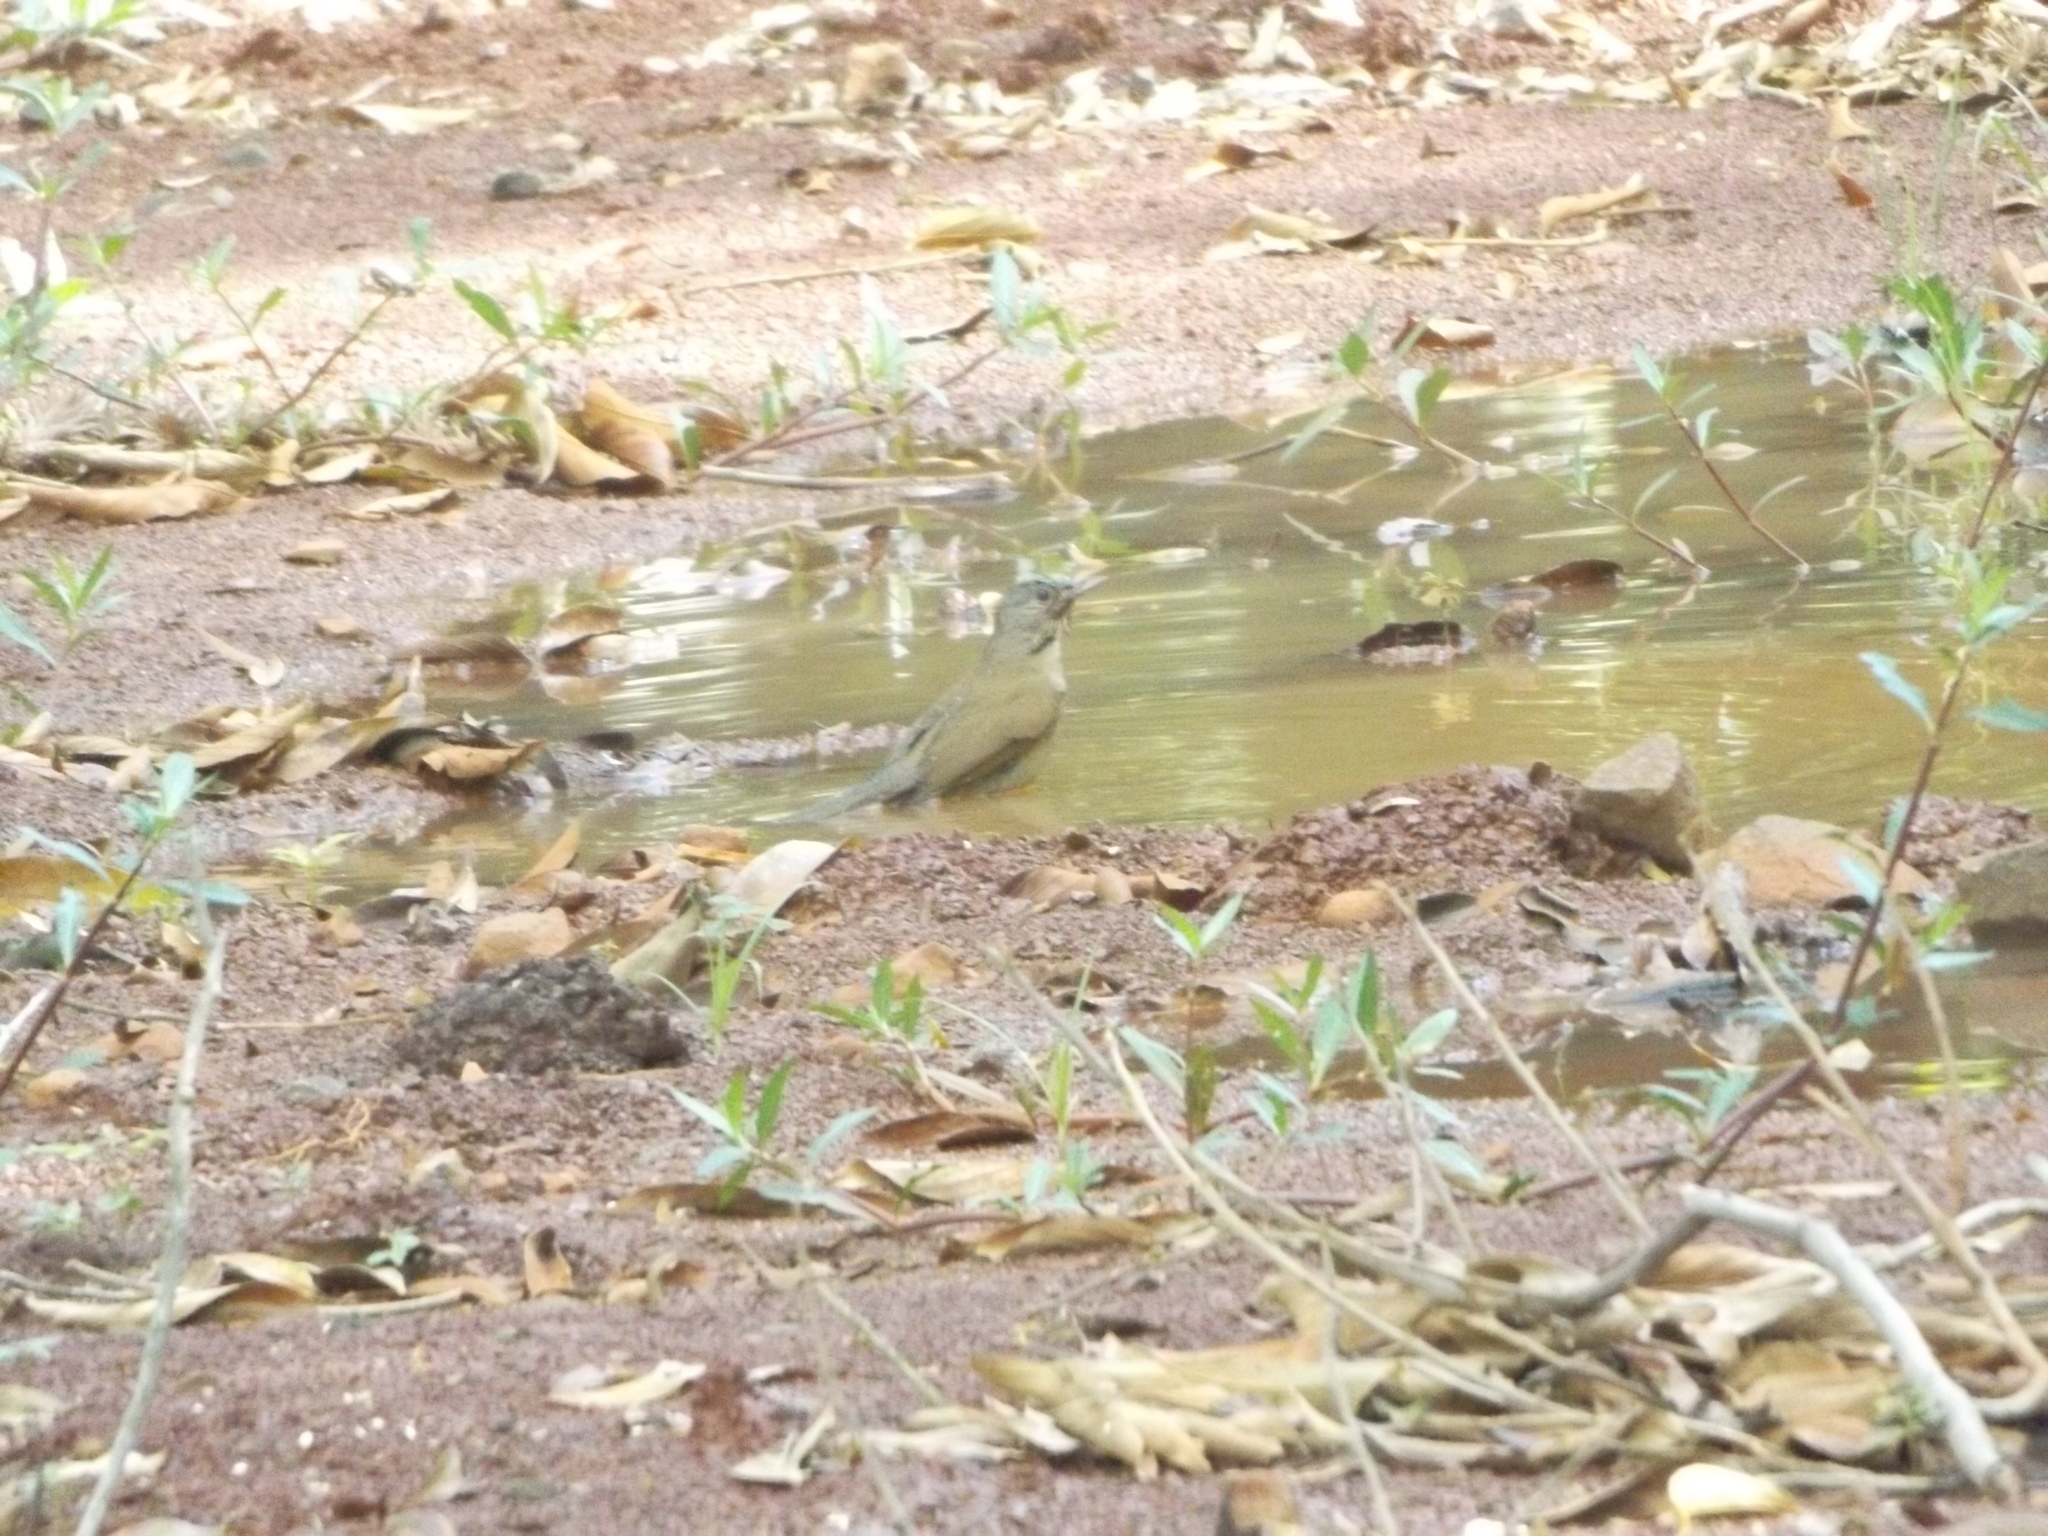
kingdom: Animalia
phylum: Chordata
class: Aves
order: Passeriformes
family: Turdidae
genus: Turdus
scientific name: Turdus leucomelas
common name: Pale-breasted thrush
